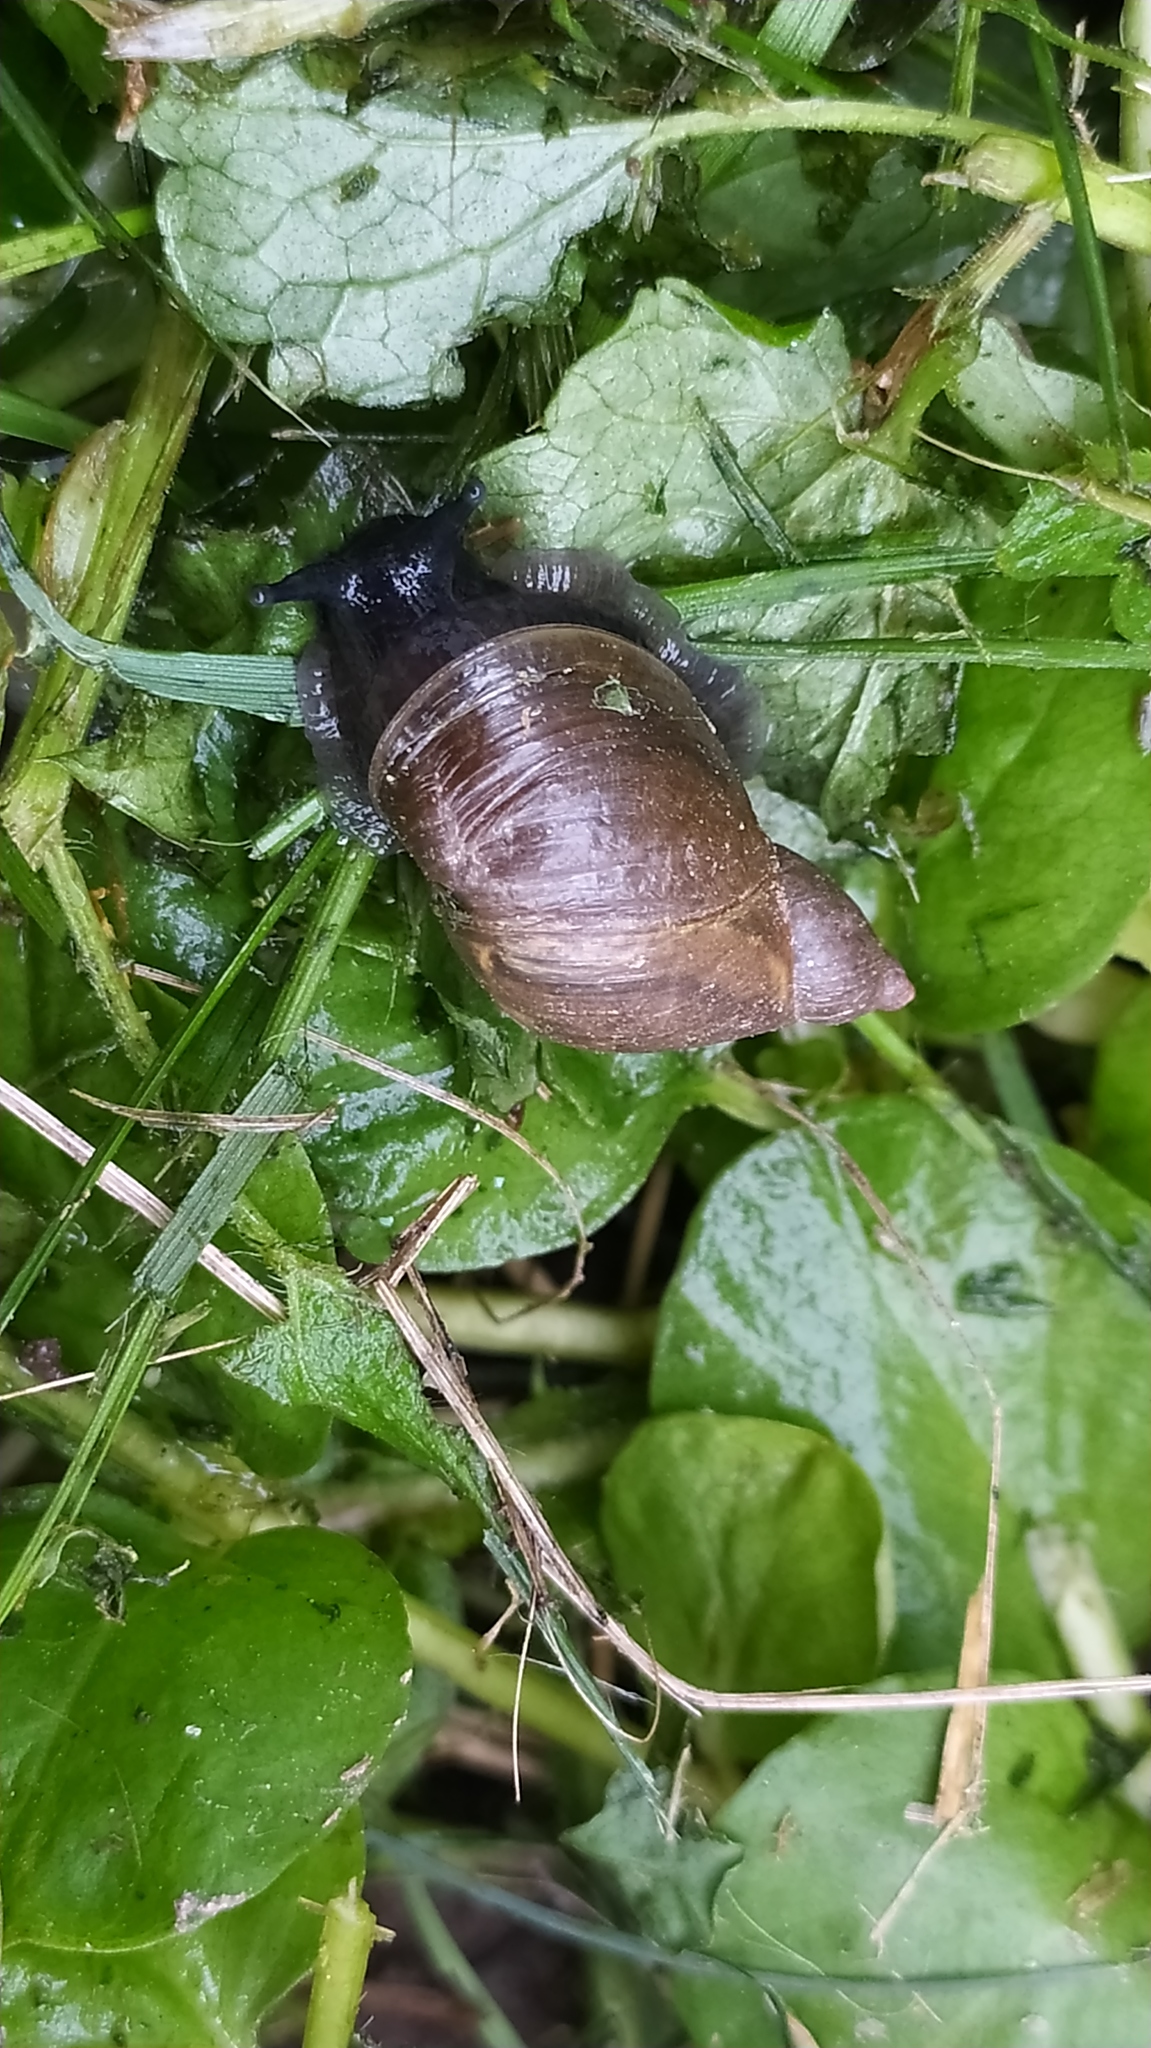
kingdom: Animalia
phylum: Mollusca
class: Gastropoda
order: Stylommatophora
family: Succineidae
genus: Succinea
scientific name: Succinea putris
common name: European ambersnail
